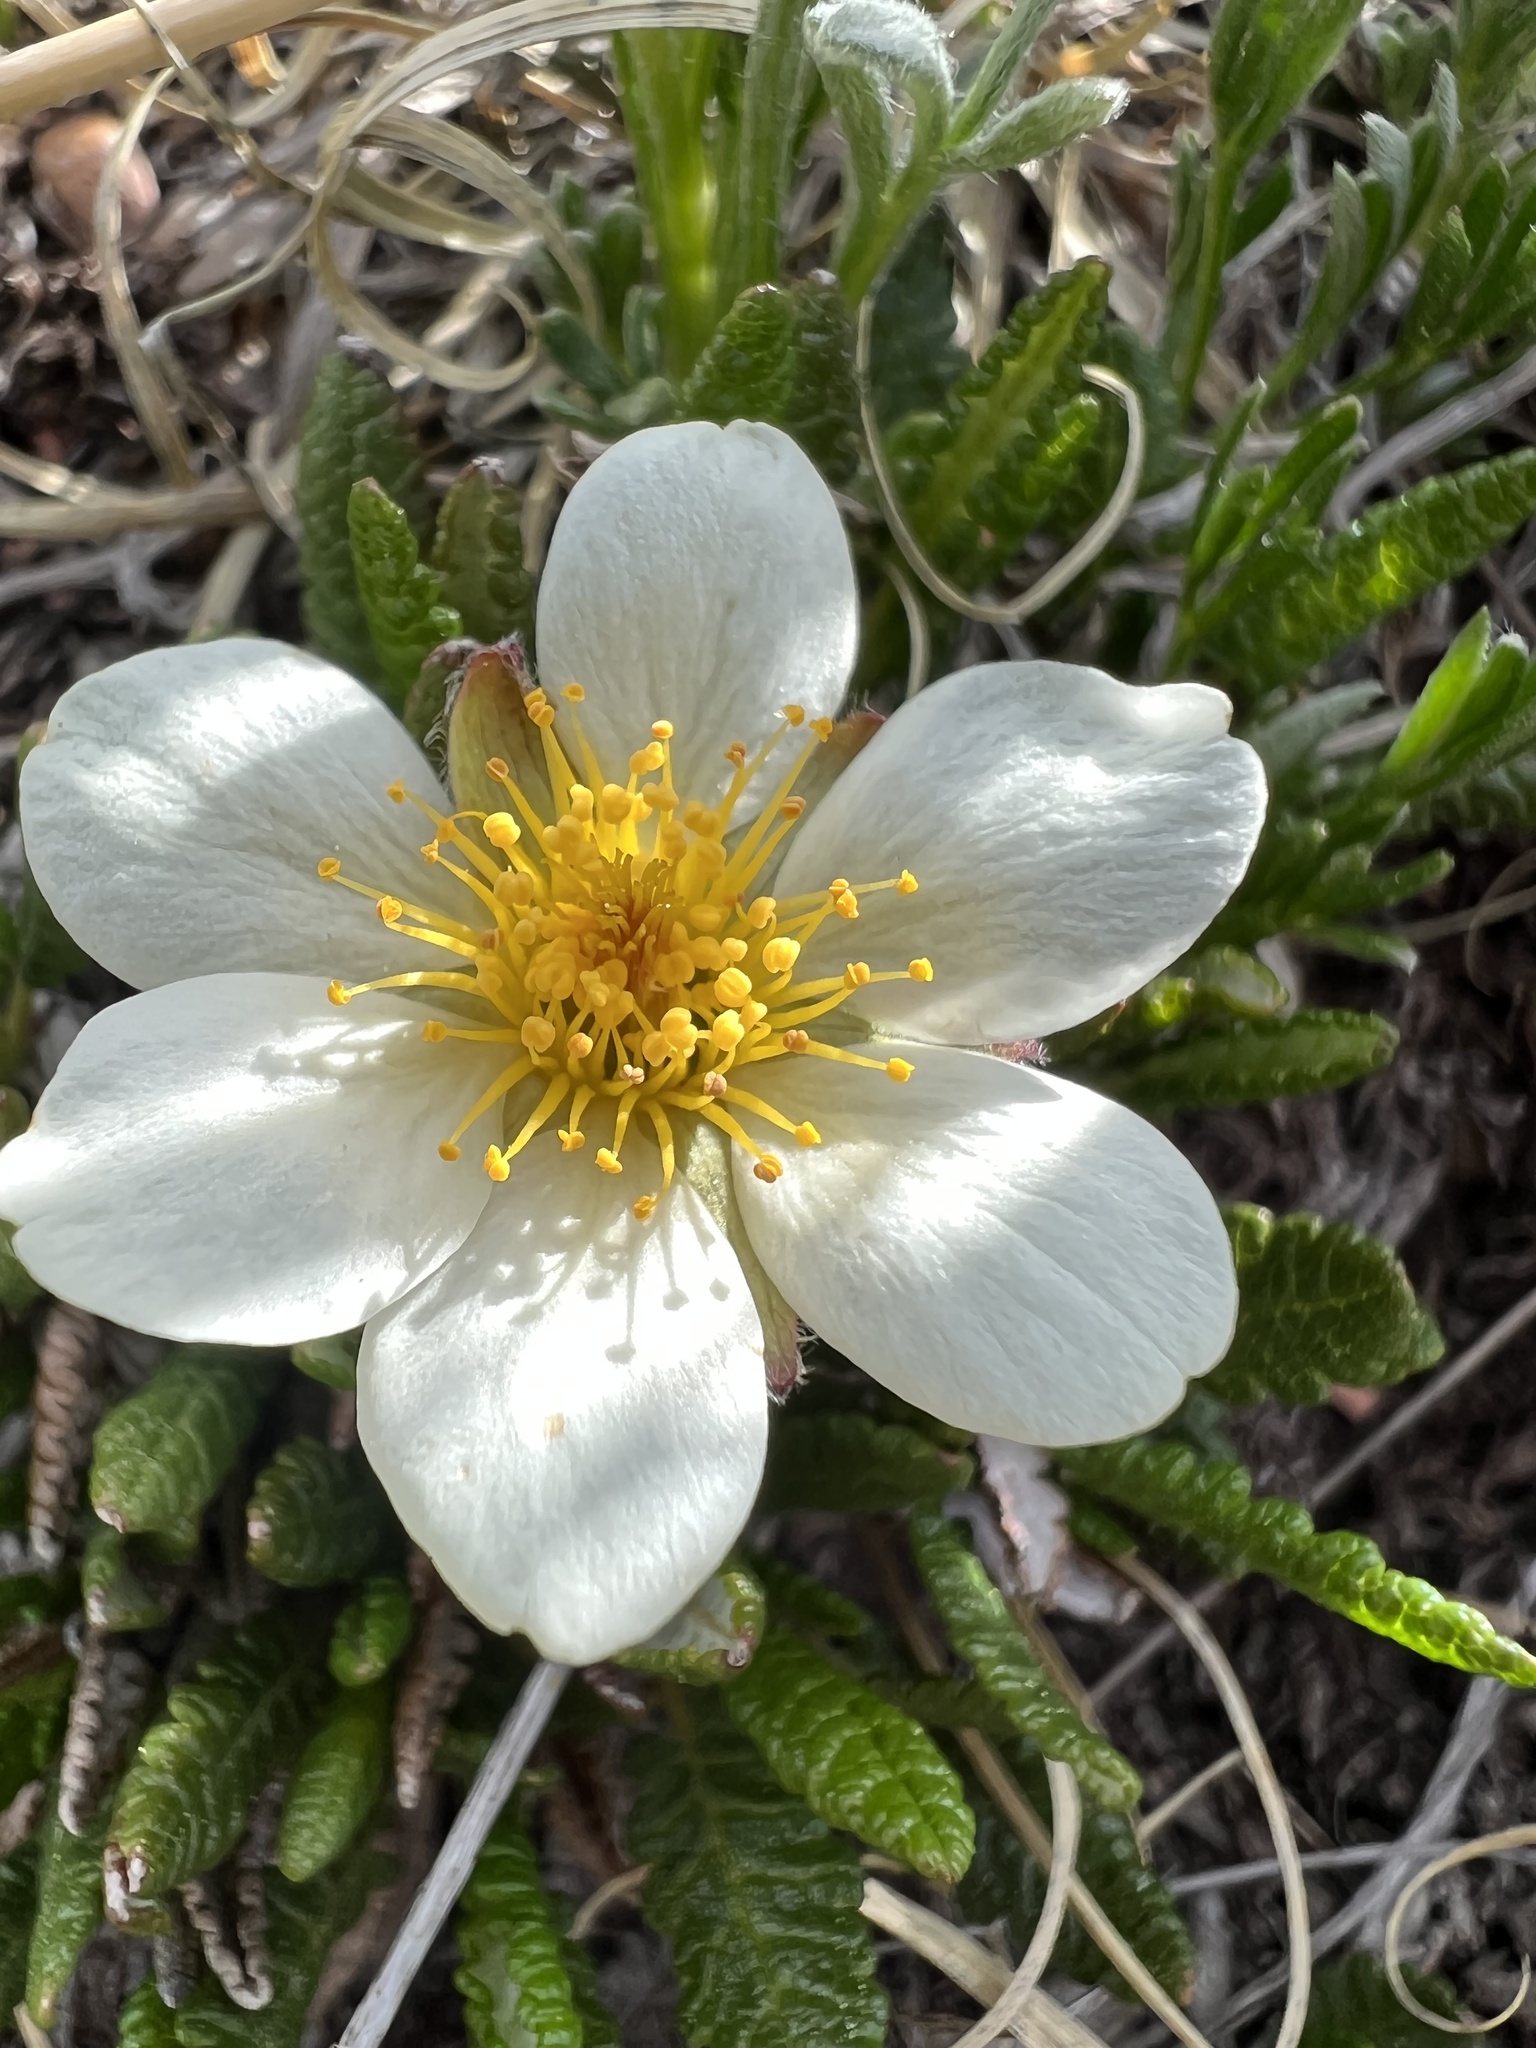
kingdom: Plantae
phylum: Tracheophyta
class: Magnoliopsida
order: Rosales
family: Rosaceae
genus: Dryas
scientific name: Dryas octopetala
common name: Eight-petal mountain-avens
